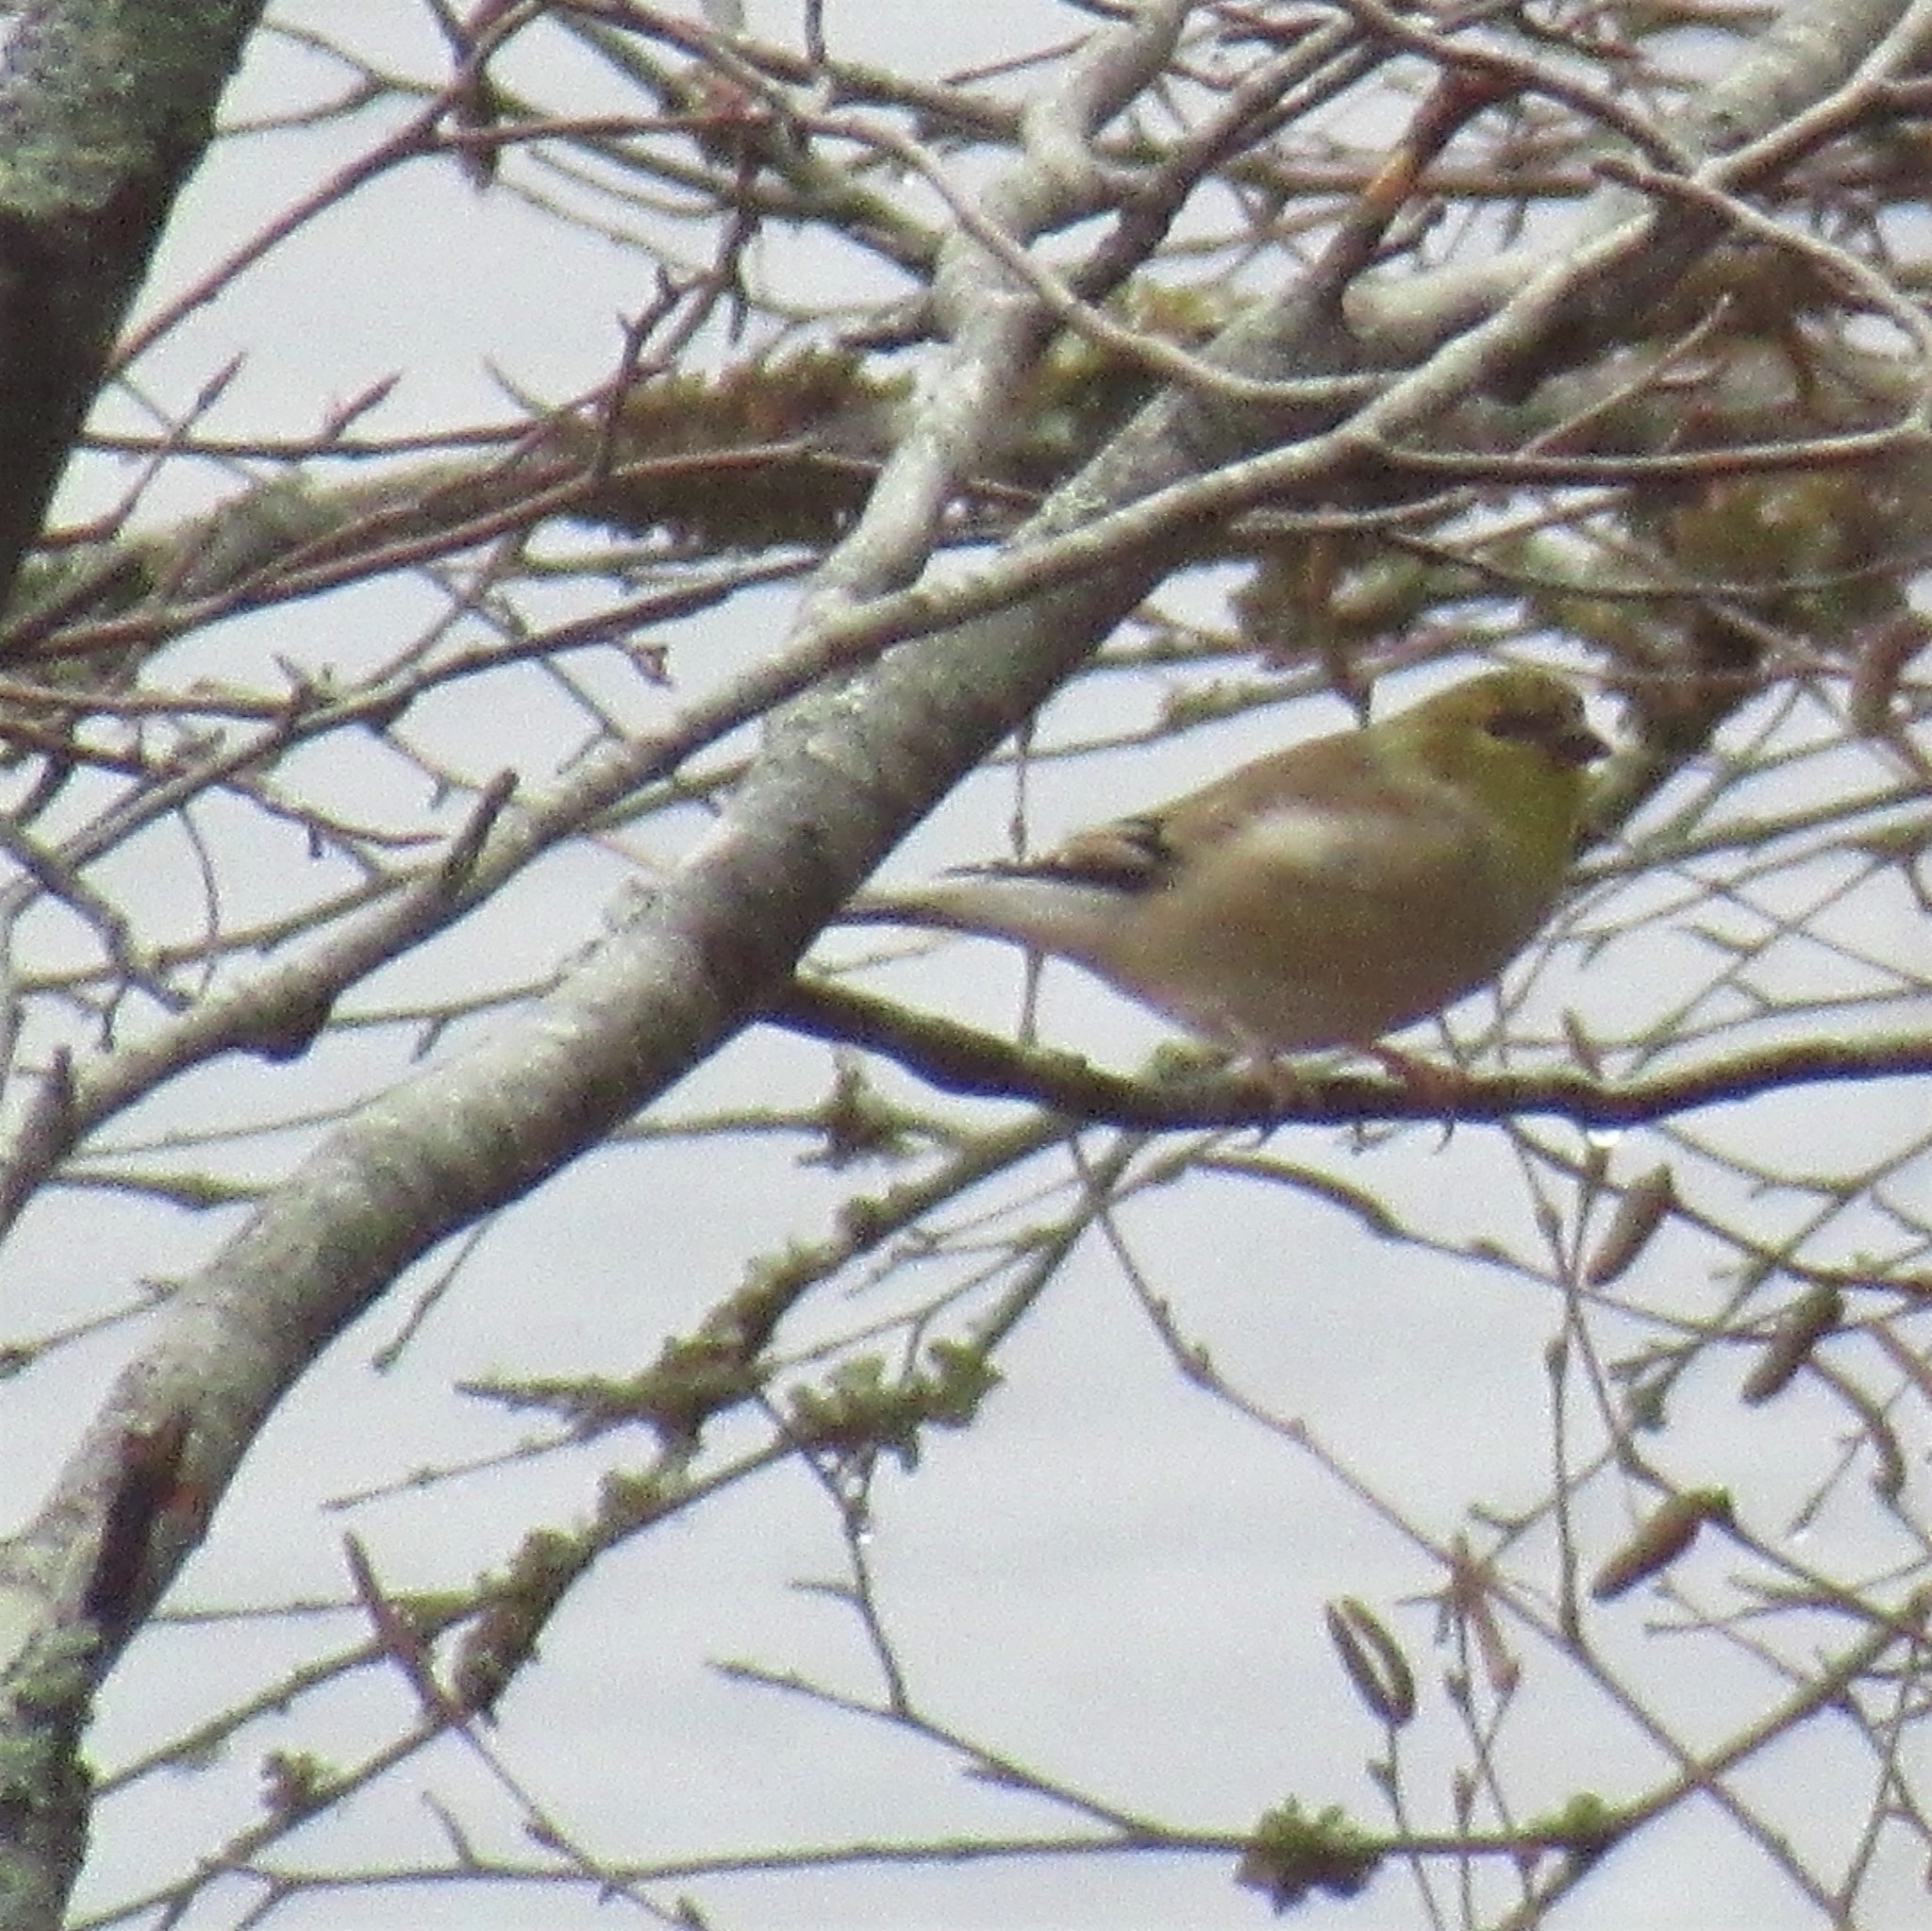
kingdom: Animalia
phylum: Chordata
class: Aves
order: Passeriformes
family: Fringillidae
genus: Spinus
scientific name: Spinus tristis
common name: American goldfinch
